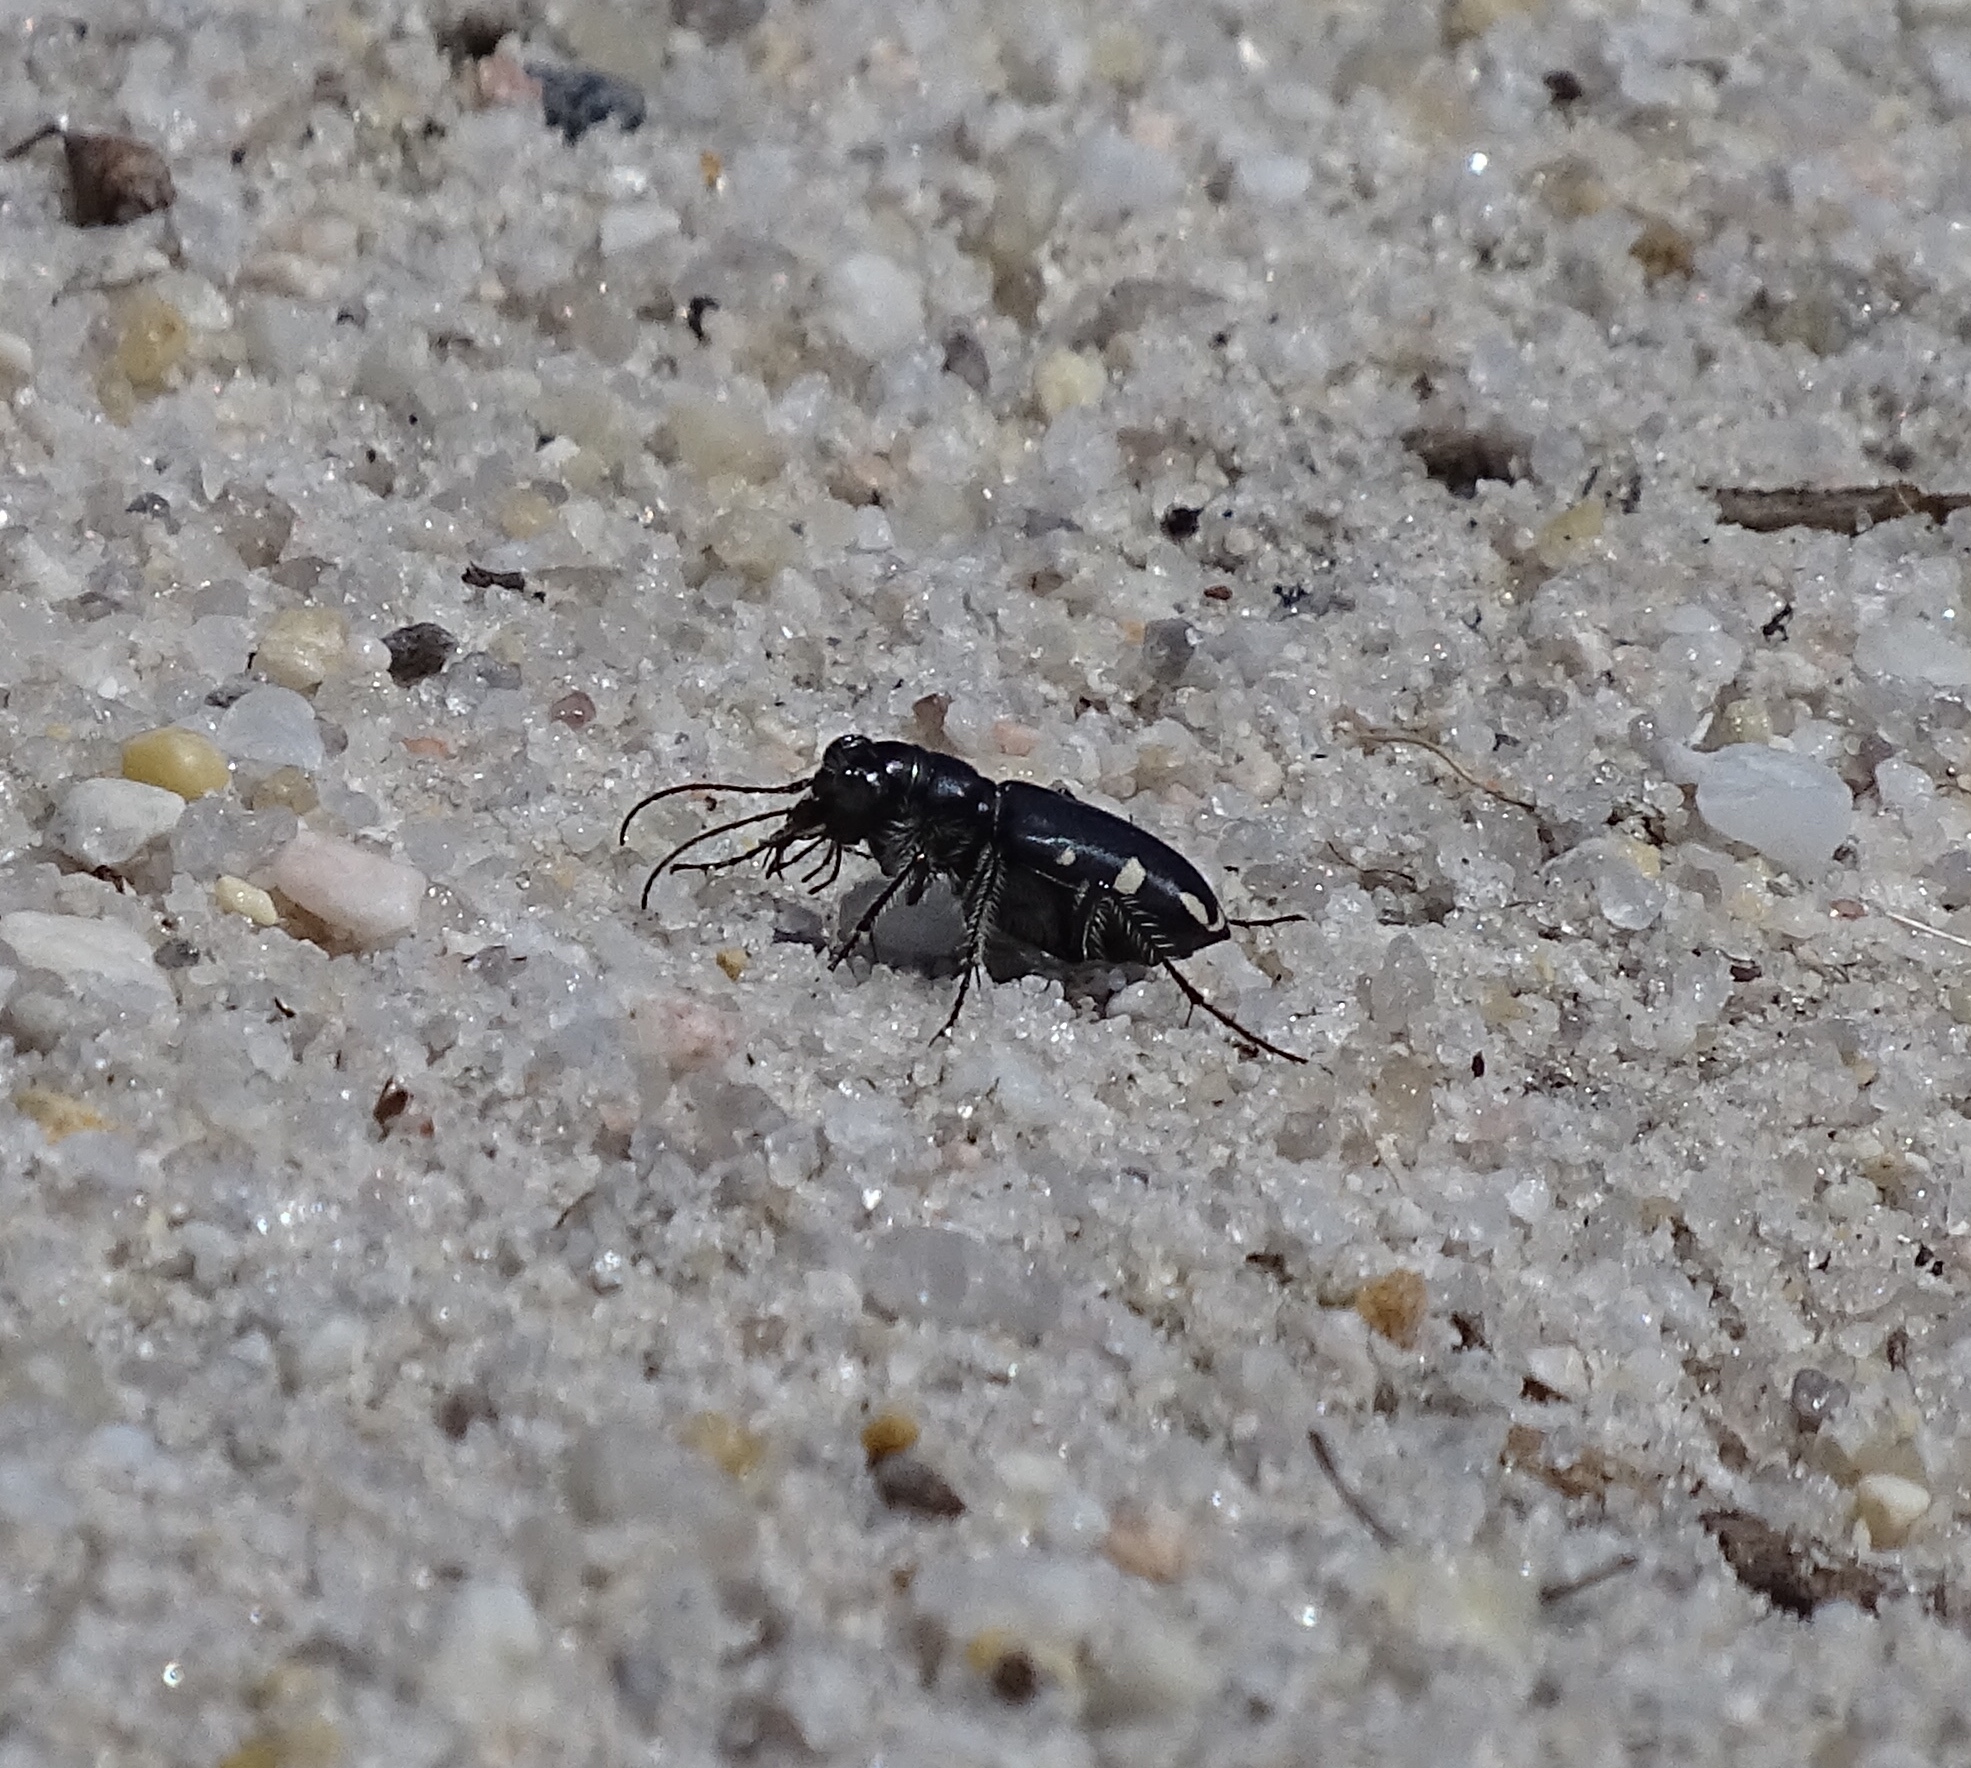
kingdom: Animalia
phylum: Arthropoda
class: Insecta
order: Coleoptera
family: Carabidae
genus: Cicindela
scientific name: Cicindela scutellaris
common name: Festive tiger beetle
